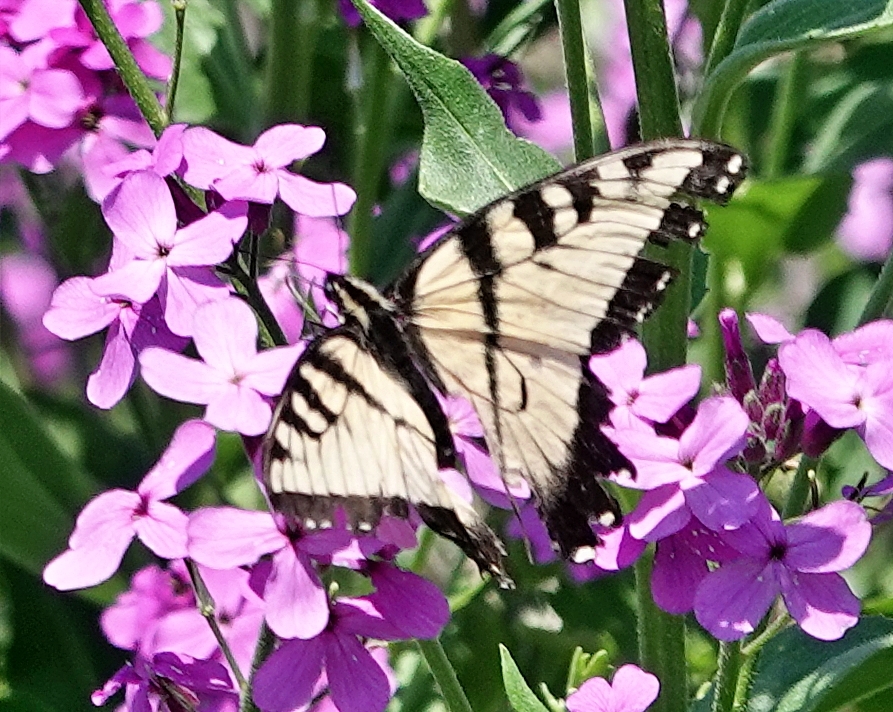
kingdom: Animalia
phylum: Arthropoda
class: Insecta
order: Lepidoptera
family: Papilionidae
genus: Papilio
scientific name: Papilio glaucus
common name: Tiger swallowtail
